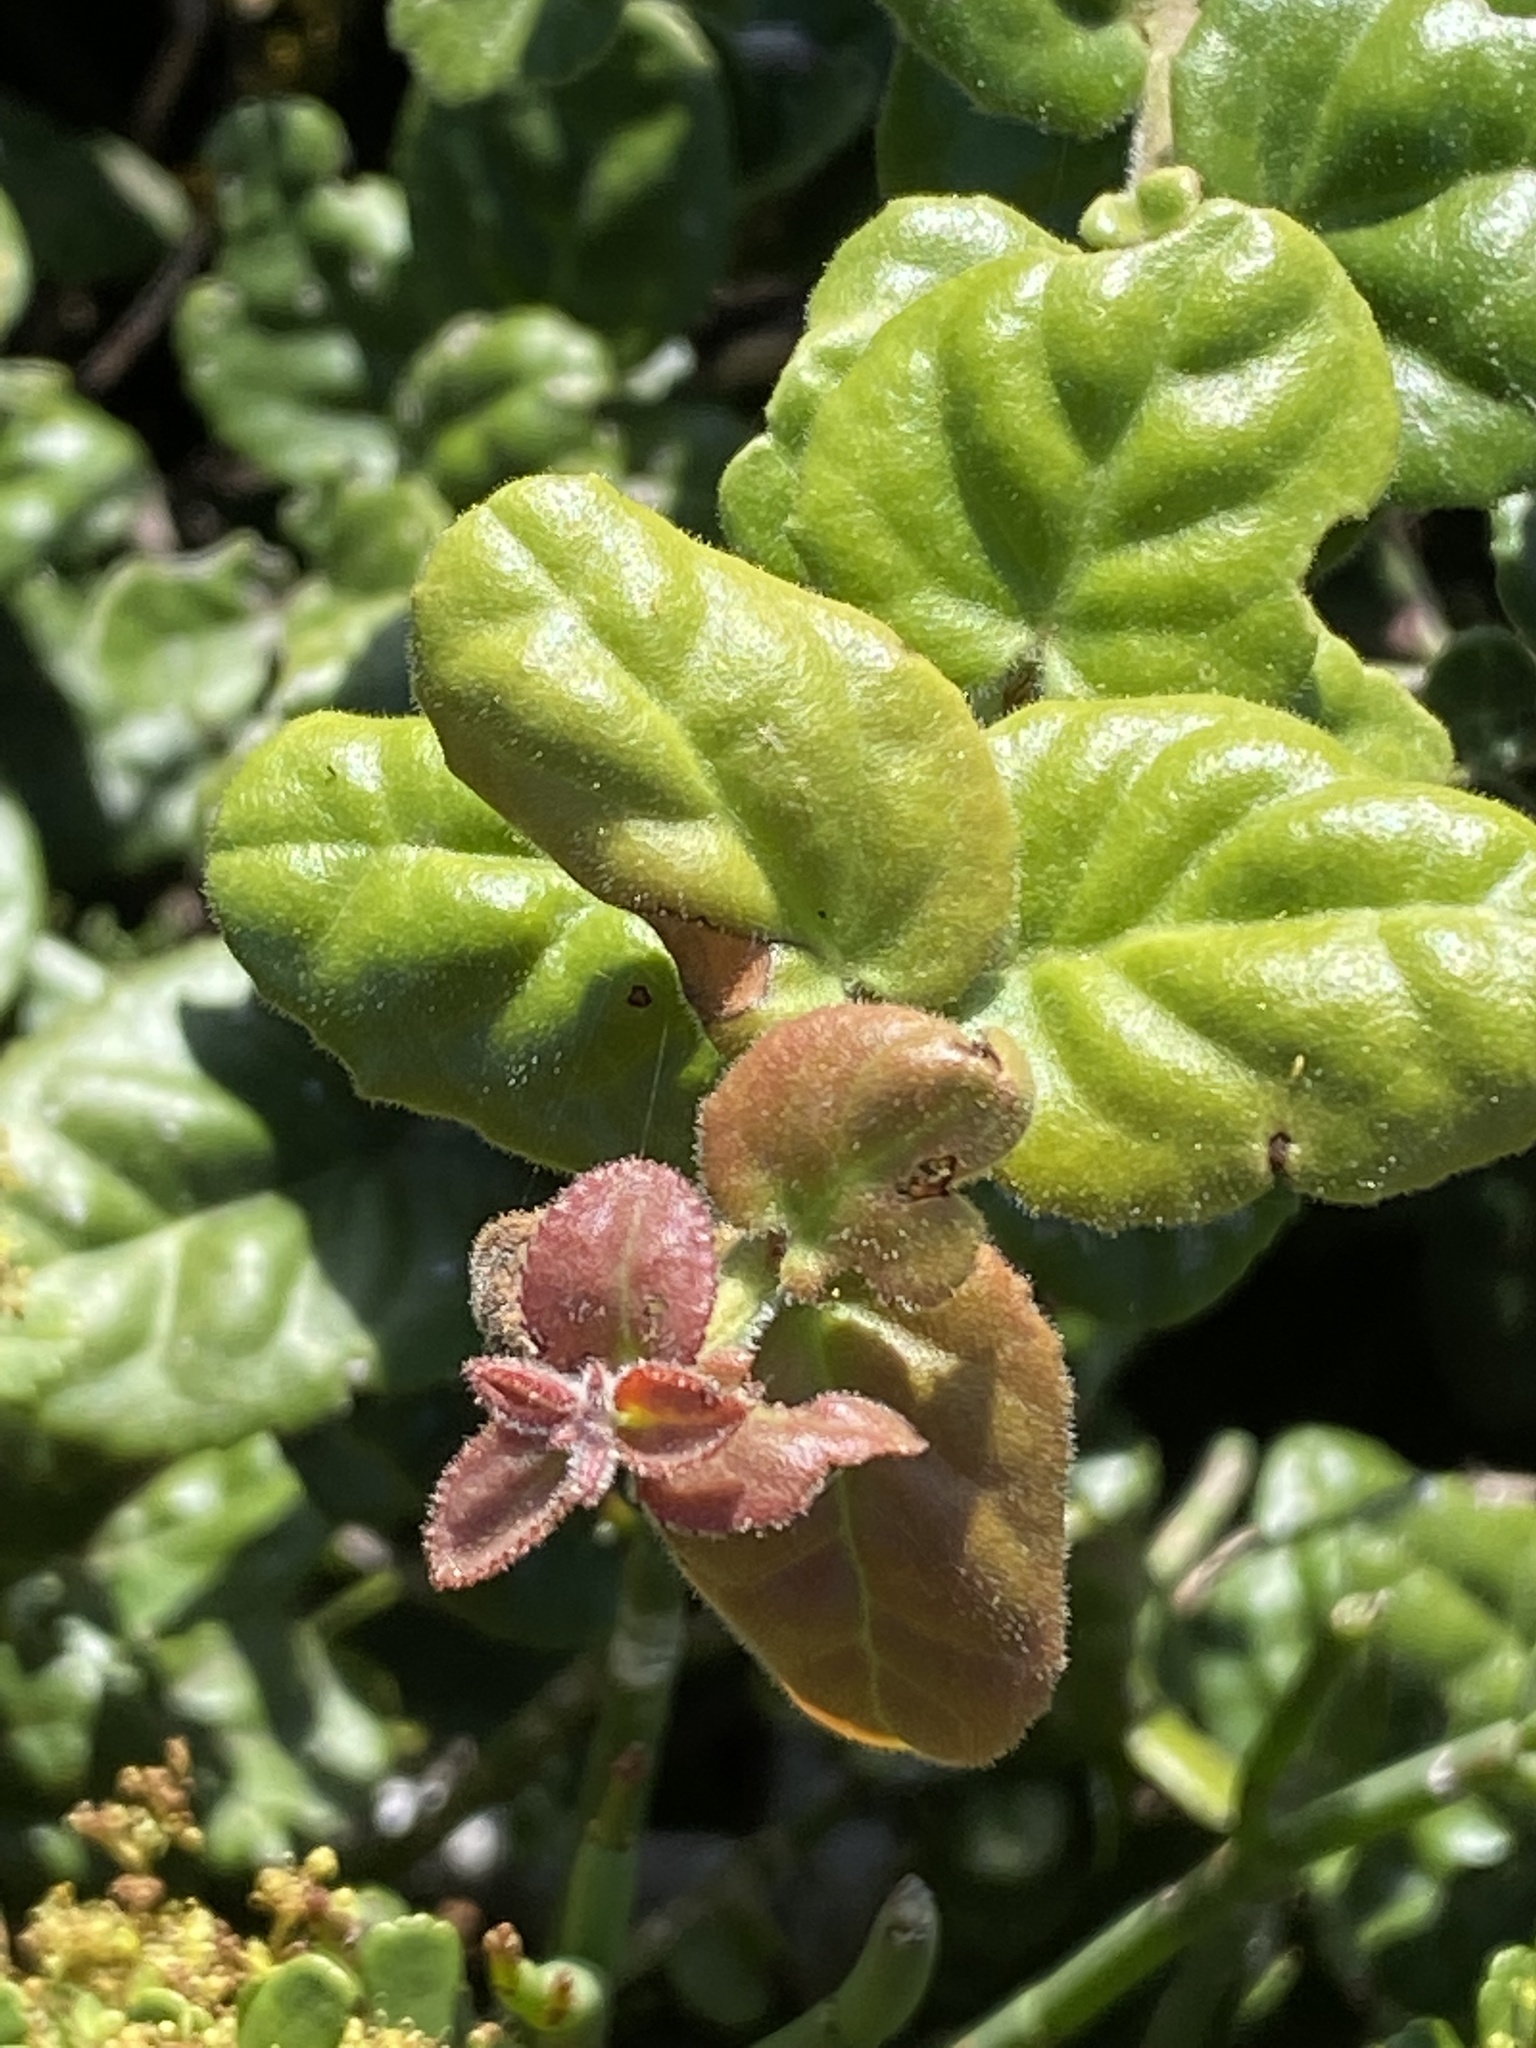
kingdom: Plantae
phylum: Tracheophyta
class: Magnoliopsida
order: Celastrales
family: Celastraceae
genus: Mystroxylon
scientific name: Mystroxylon aethiopicum
